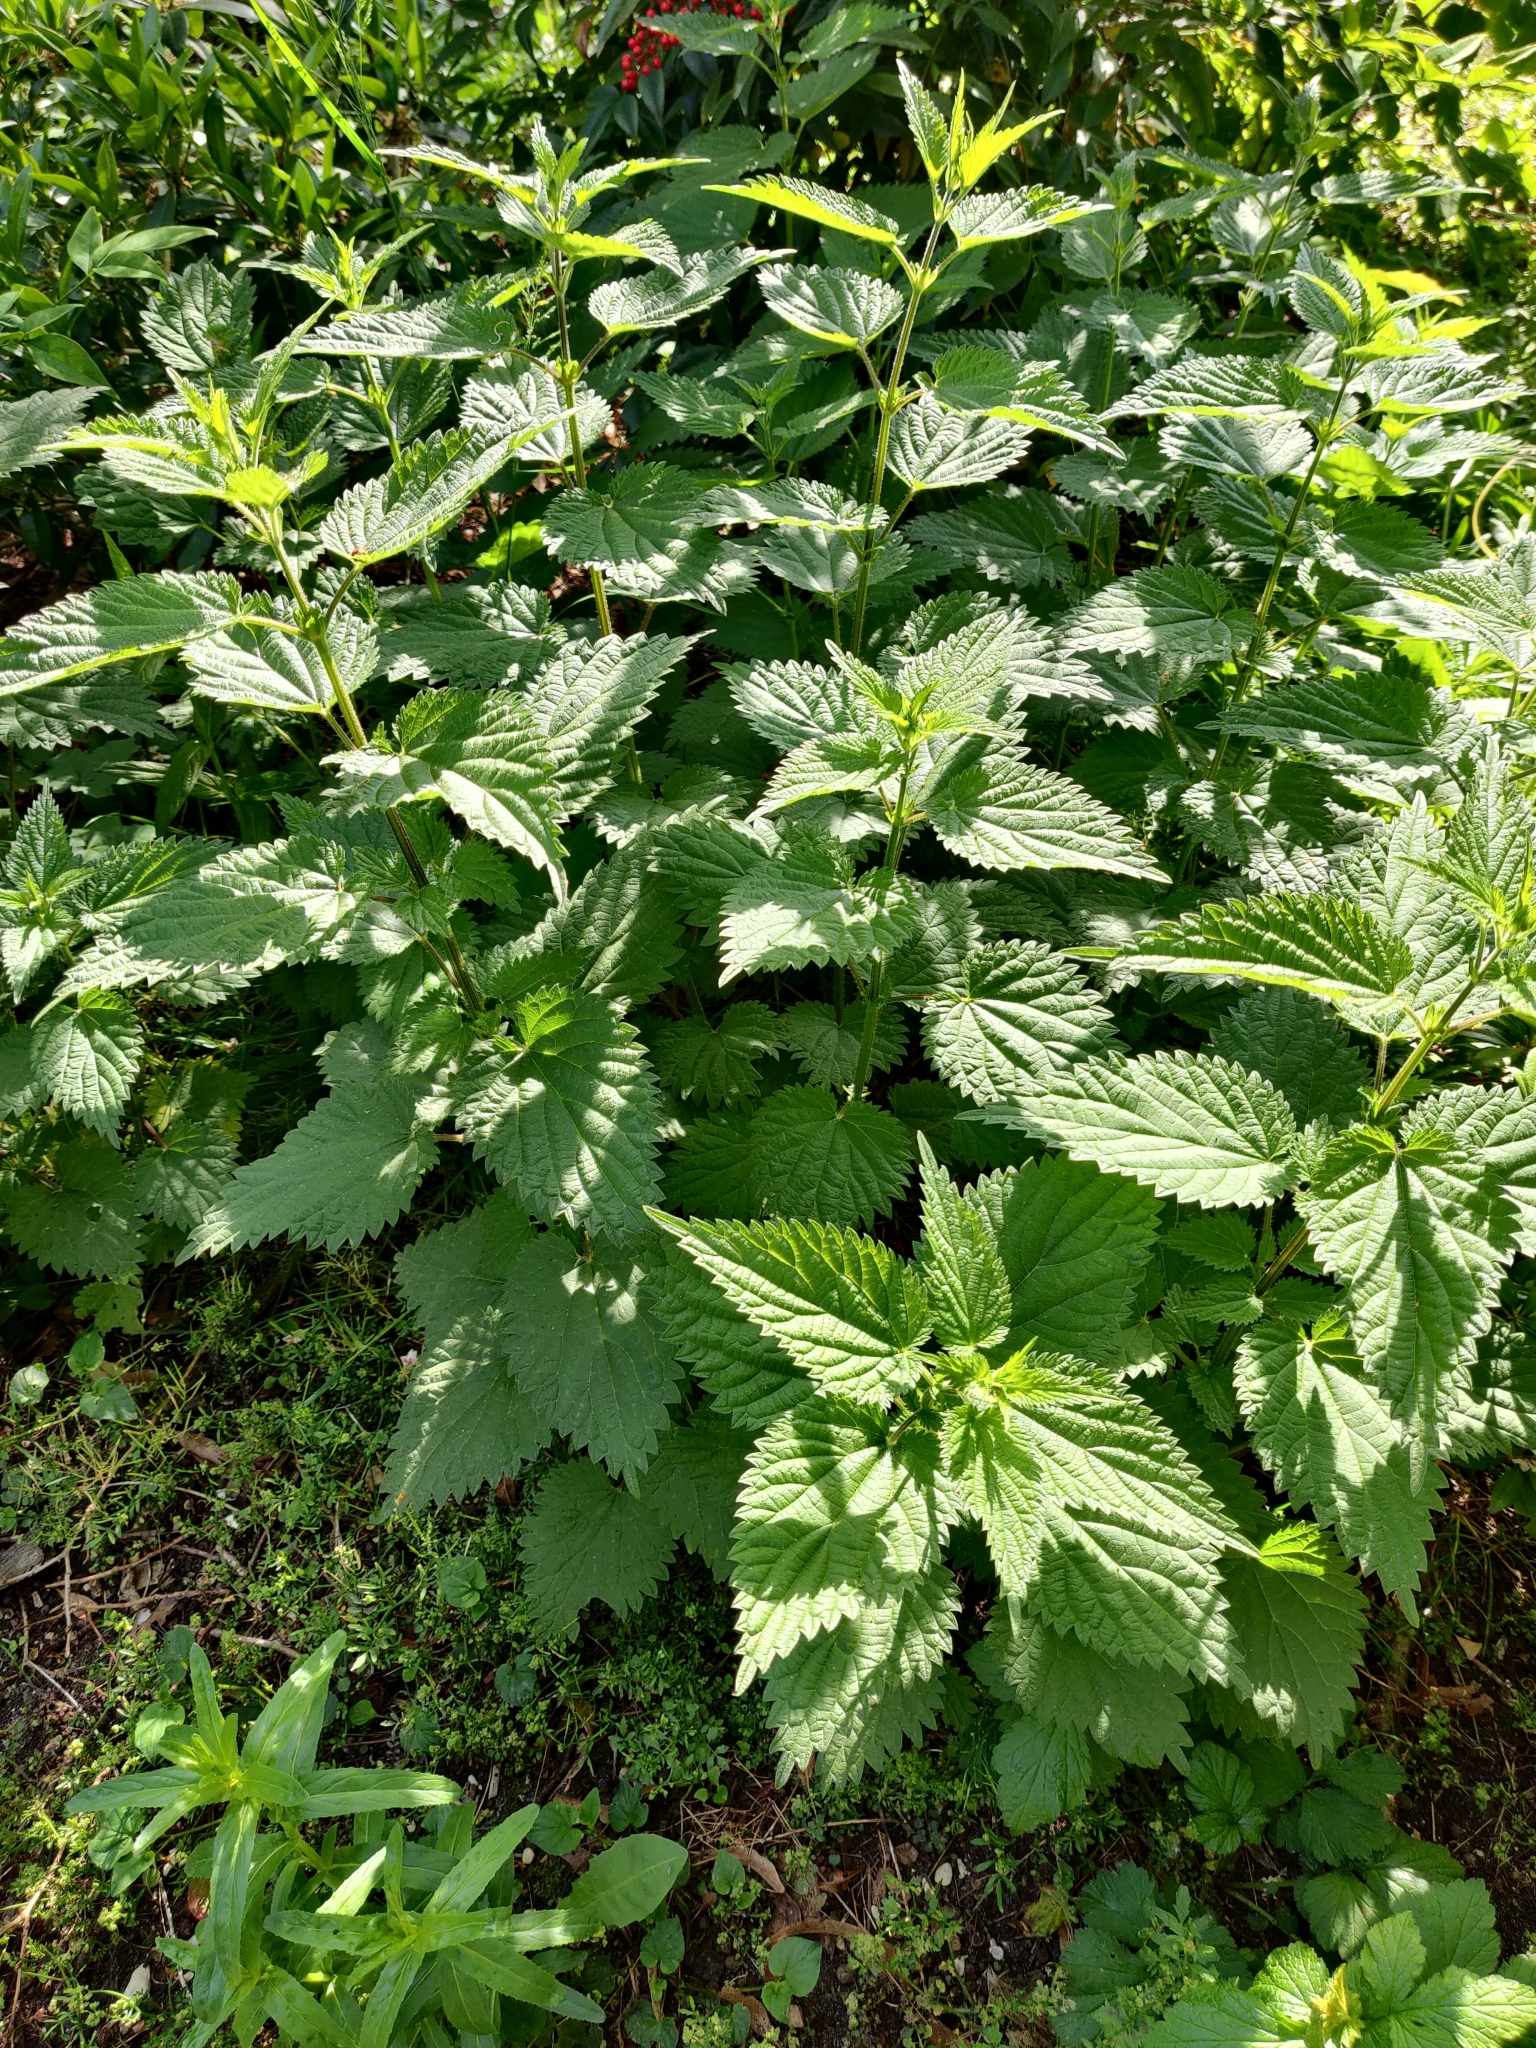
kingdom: Plantae
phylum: Tracheophyta
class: Magnoliopsida
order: Rosales
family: Urticaceae
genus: Urtica
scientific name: Urtica dioica
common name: Common nettle
